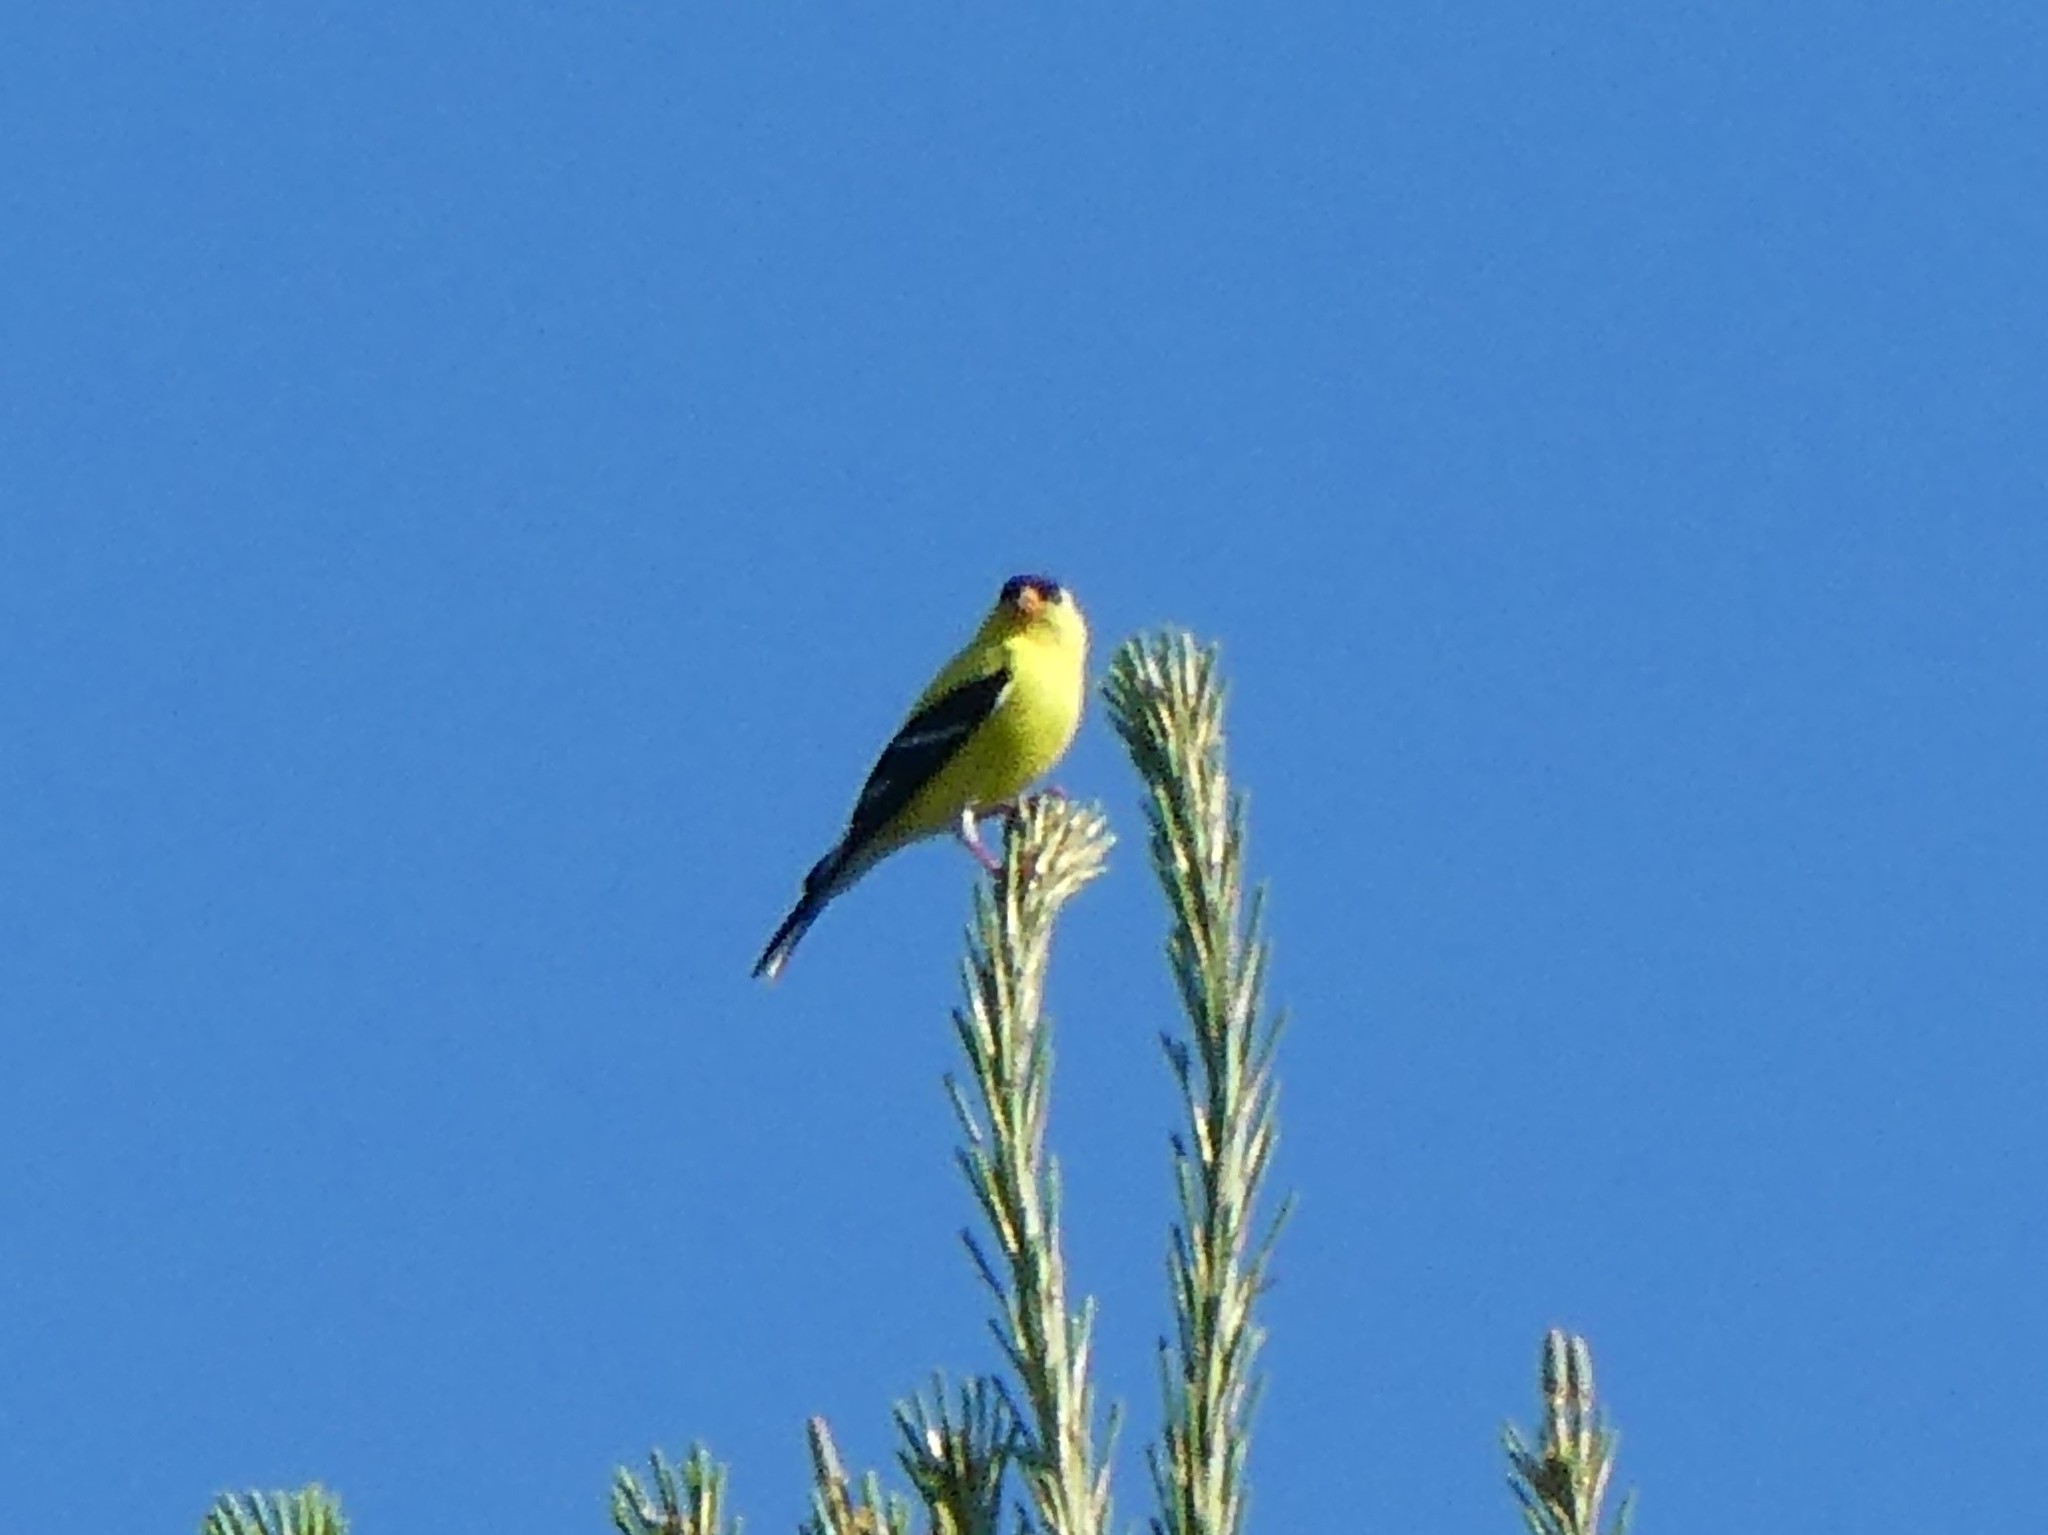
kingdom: Animalia
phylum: Chordata
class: Aves
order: Passeriformes
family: Fringillidae
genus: Spinus
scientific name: Spinus tristis
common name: American goldfinch
